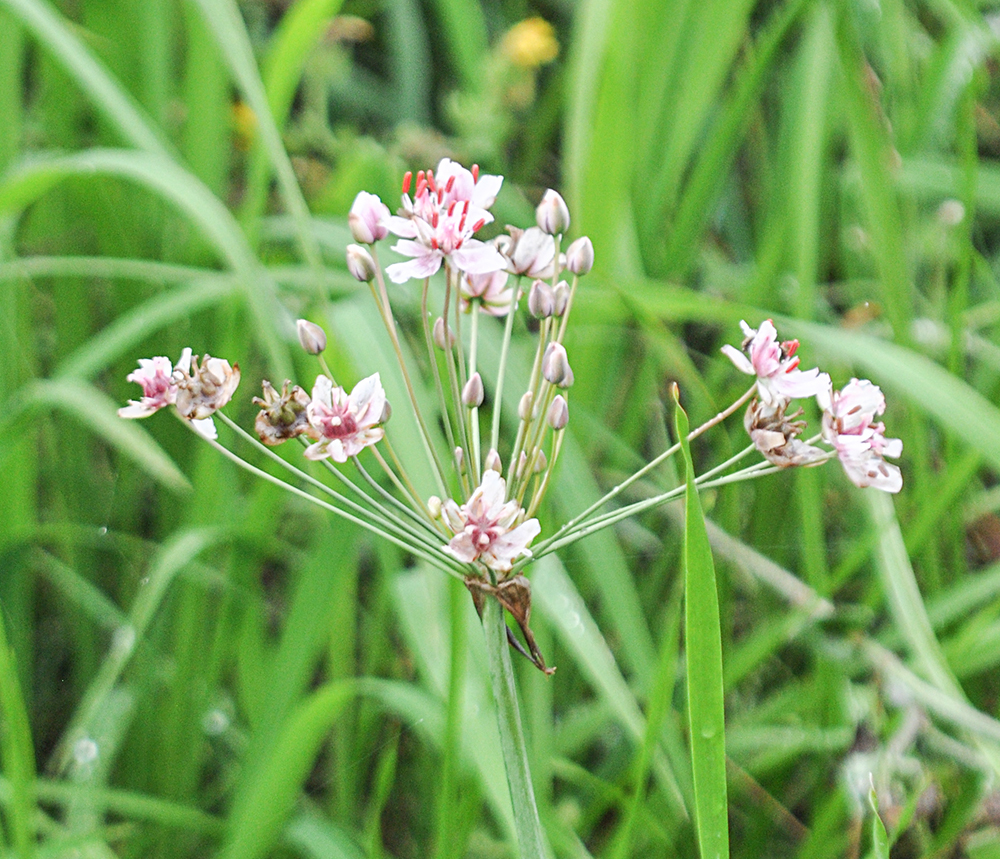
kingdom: Plantae
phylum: Tracheophyta
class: Liliopsida
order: Alismatales
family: Butomaceae
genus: Butomus
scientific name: Butomus umbellatus
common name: Flowering-rush
